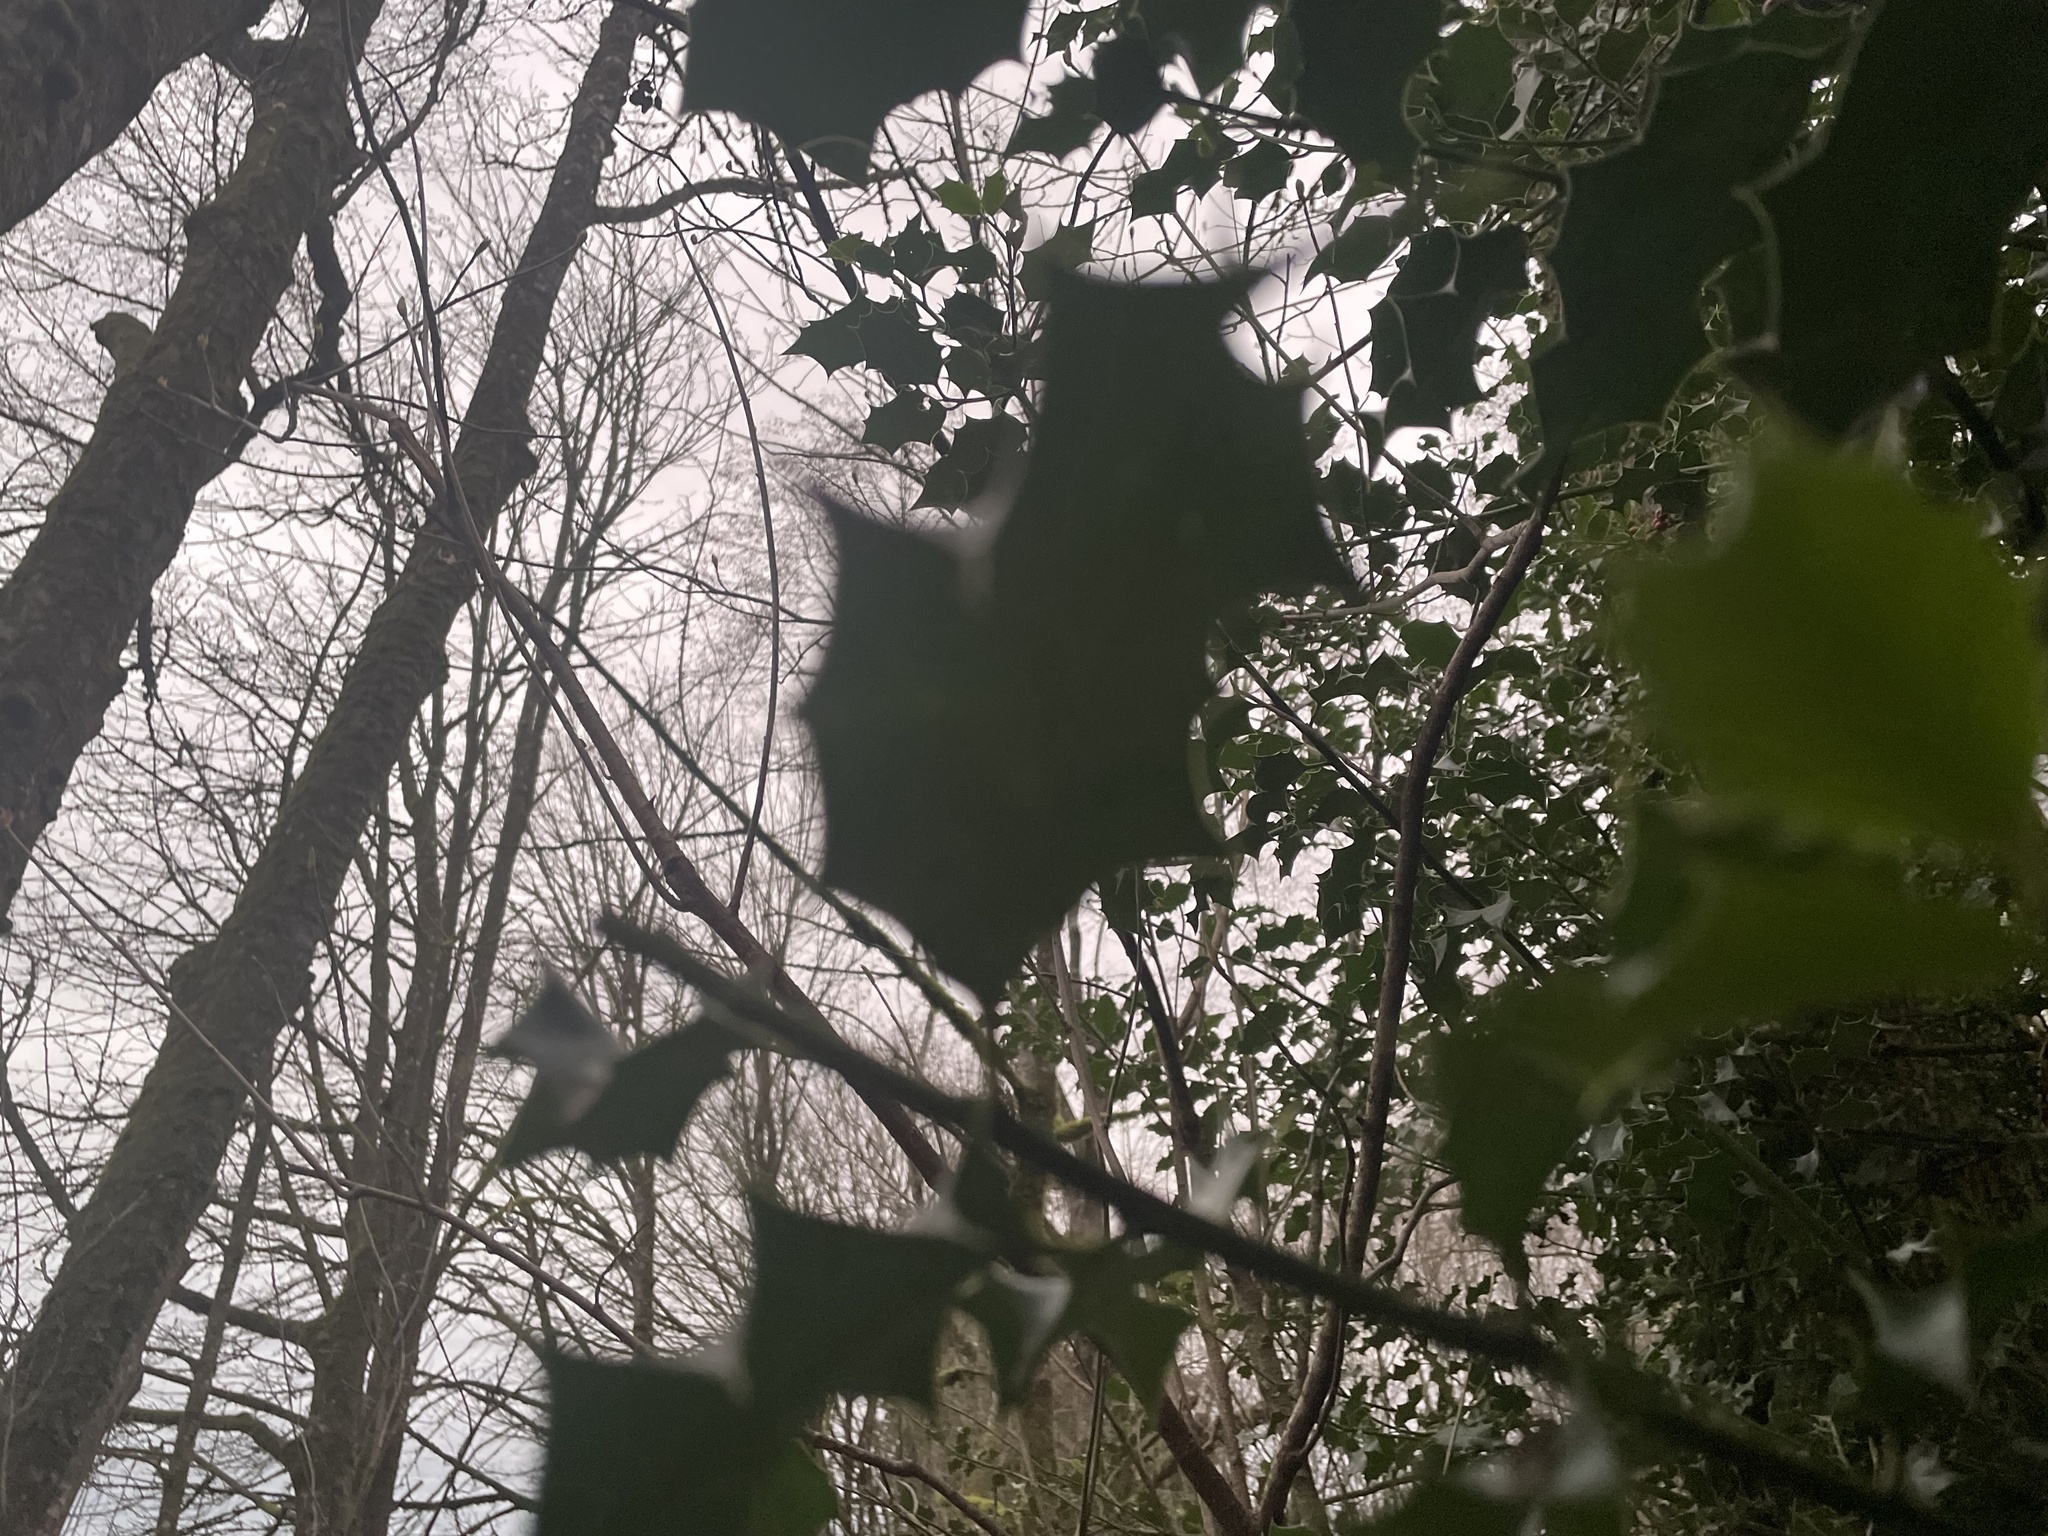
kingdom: Plantae
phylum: Tracheophyta
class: Magnoliopsida
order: Aquifoliales
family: Aquifoliaceae
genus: Ilex
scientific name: Ilex aquifolium
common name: English holly
